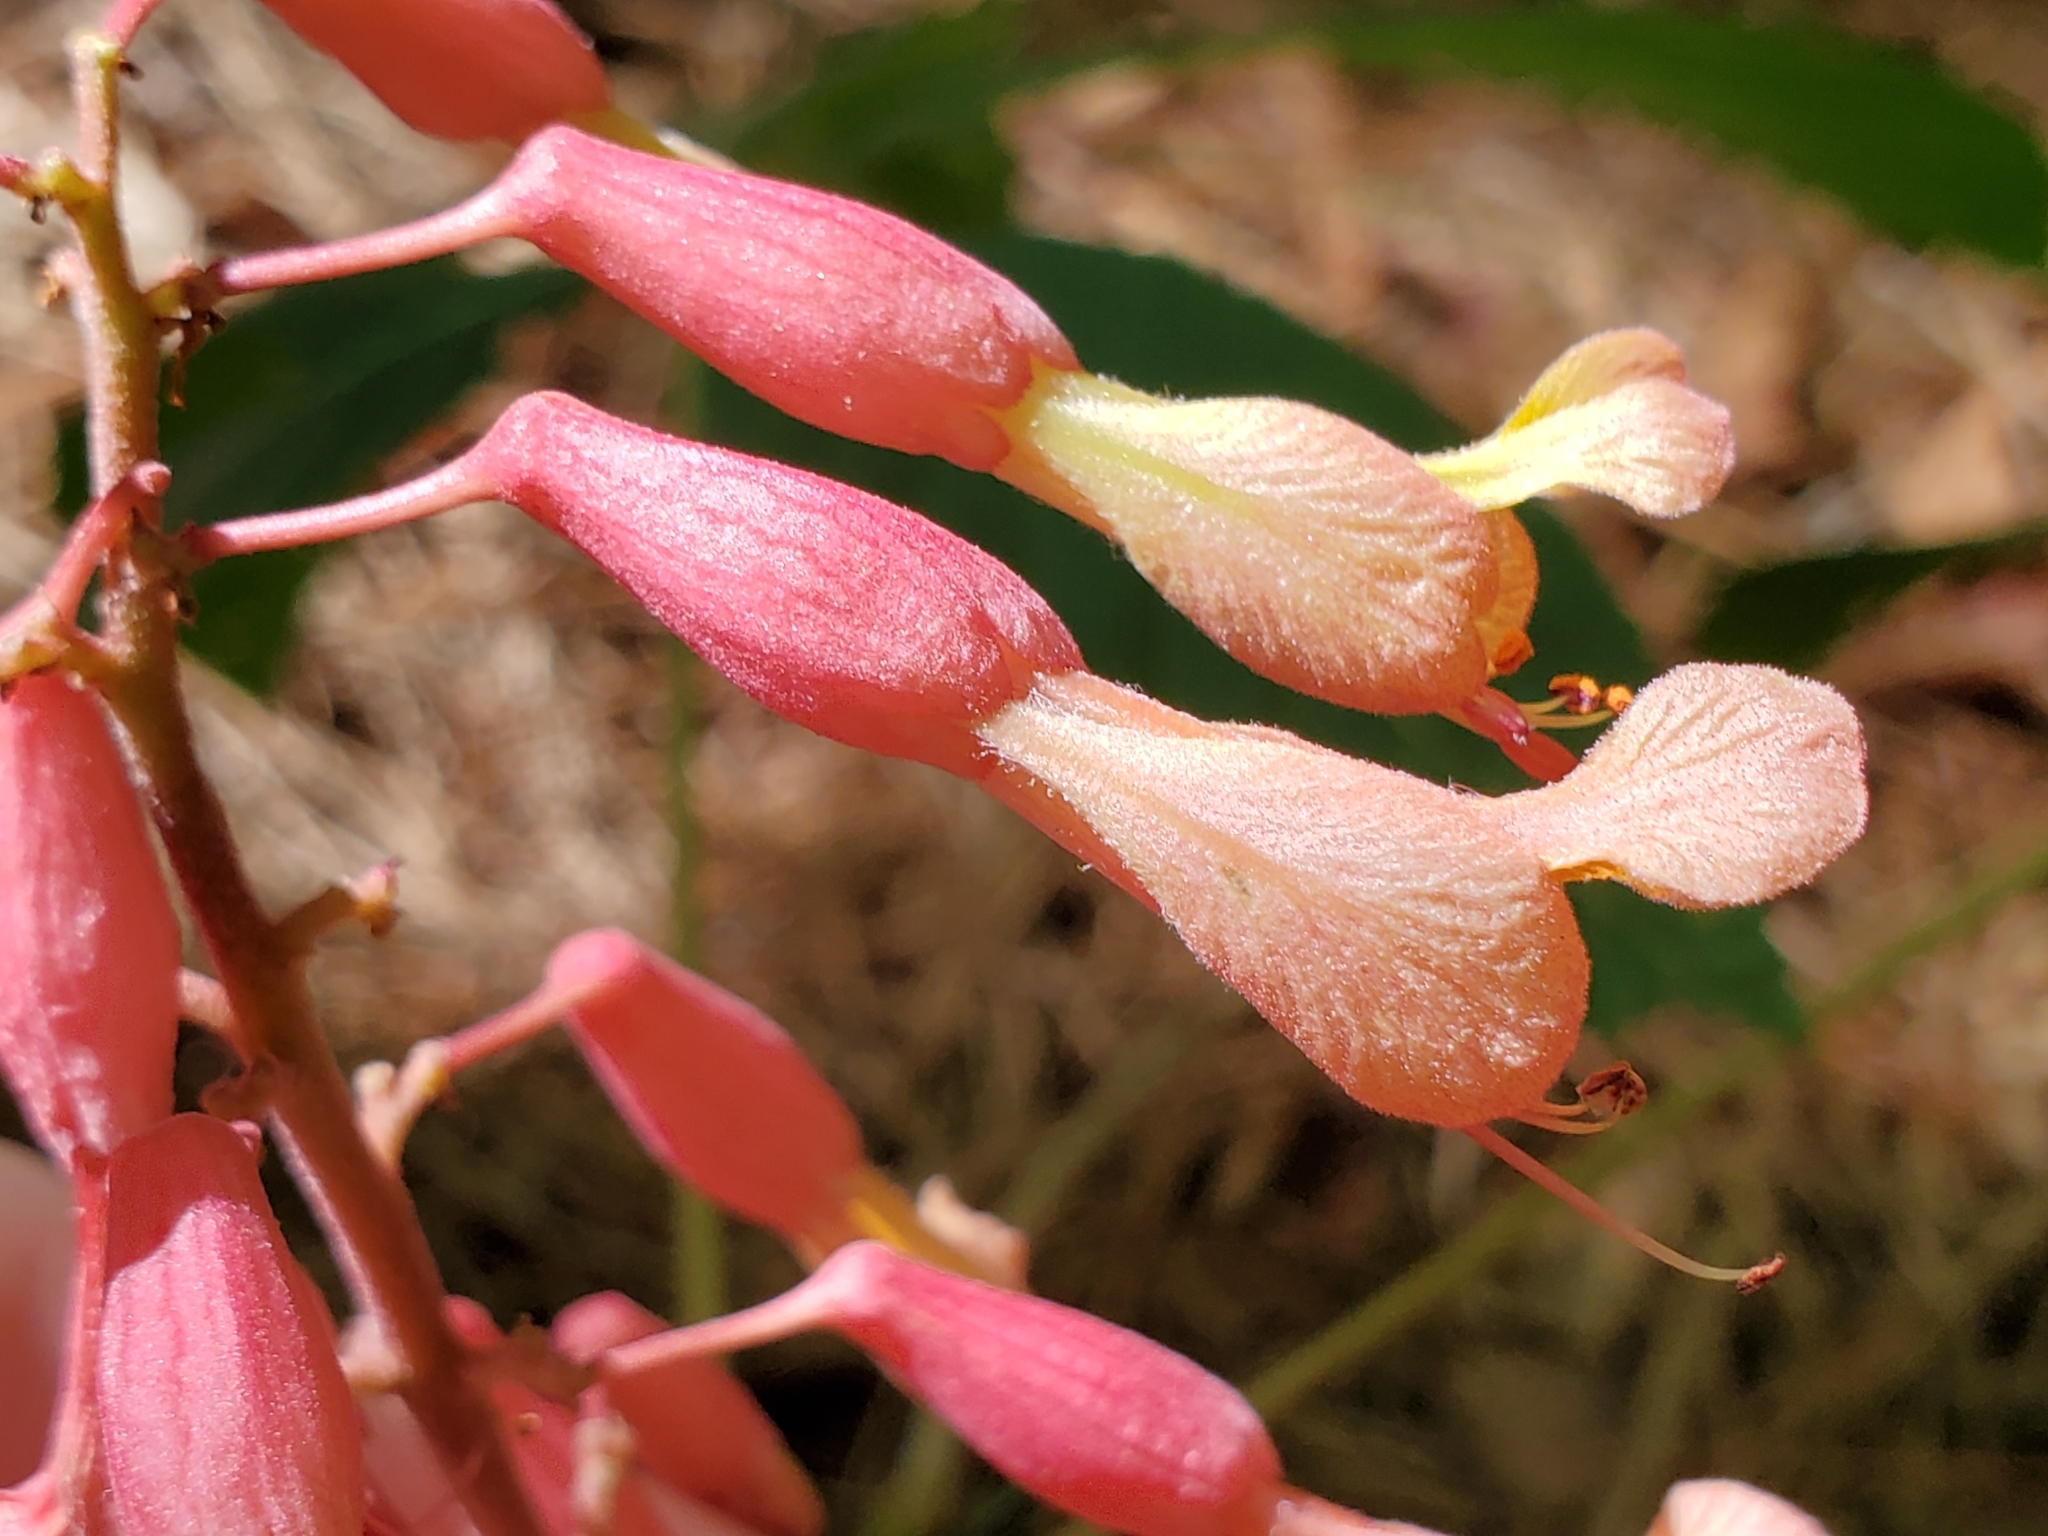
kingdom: Plantae
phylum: Tracheophyta
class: Magnoliopsida
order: Sapindales
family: Sapindaceae
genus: Aesculus
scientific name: Aesculus pavia
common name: Red buckeye
